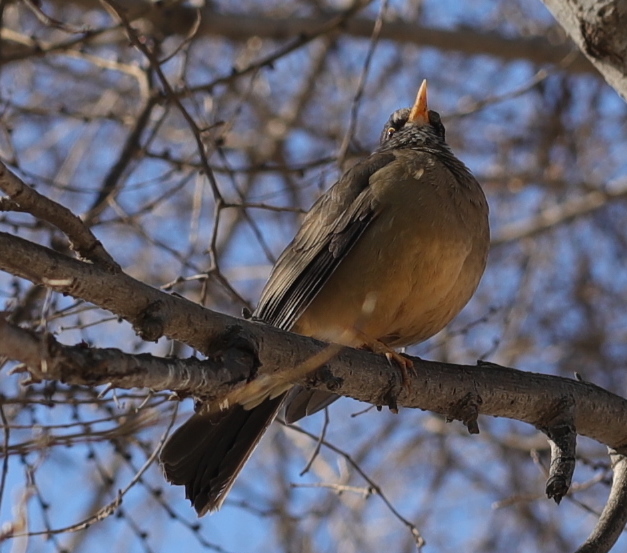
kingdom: Animalia
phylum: Chordata
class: Aves
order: Passeriformes
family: Turdidae
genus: Turdus
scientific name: Turdus falcklandii
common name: Austral thrush
